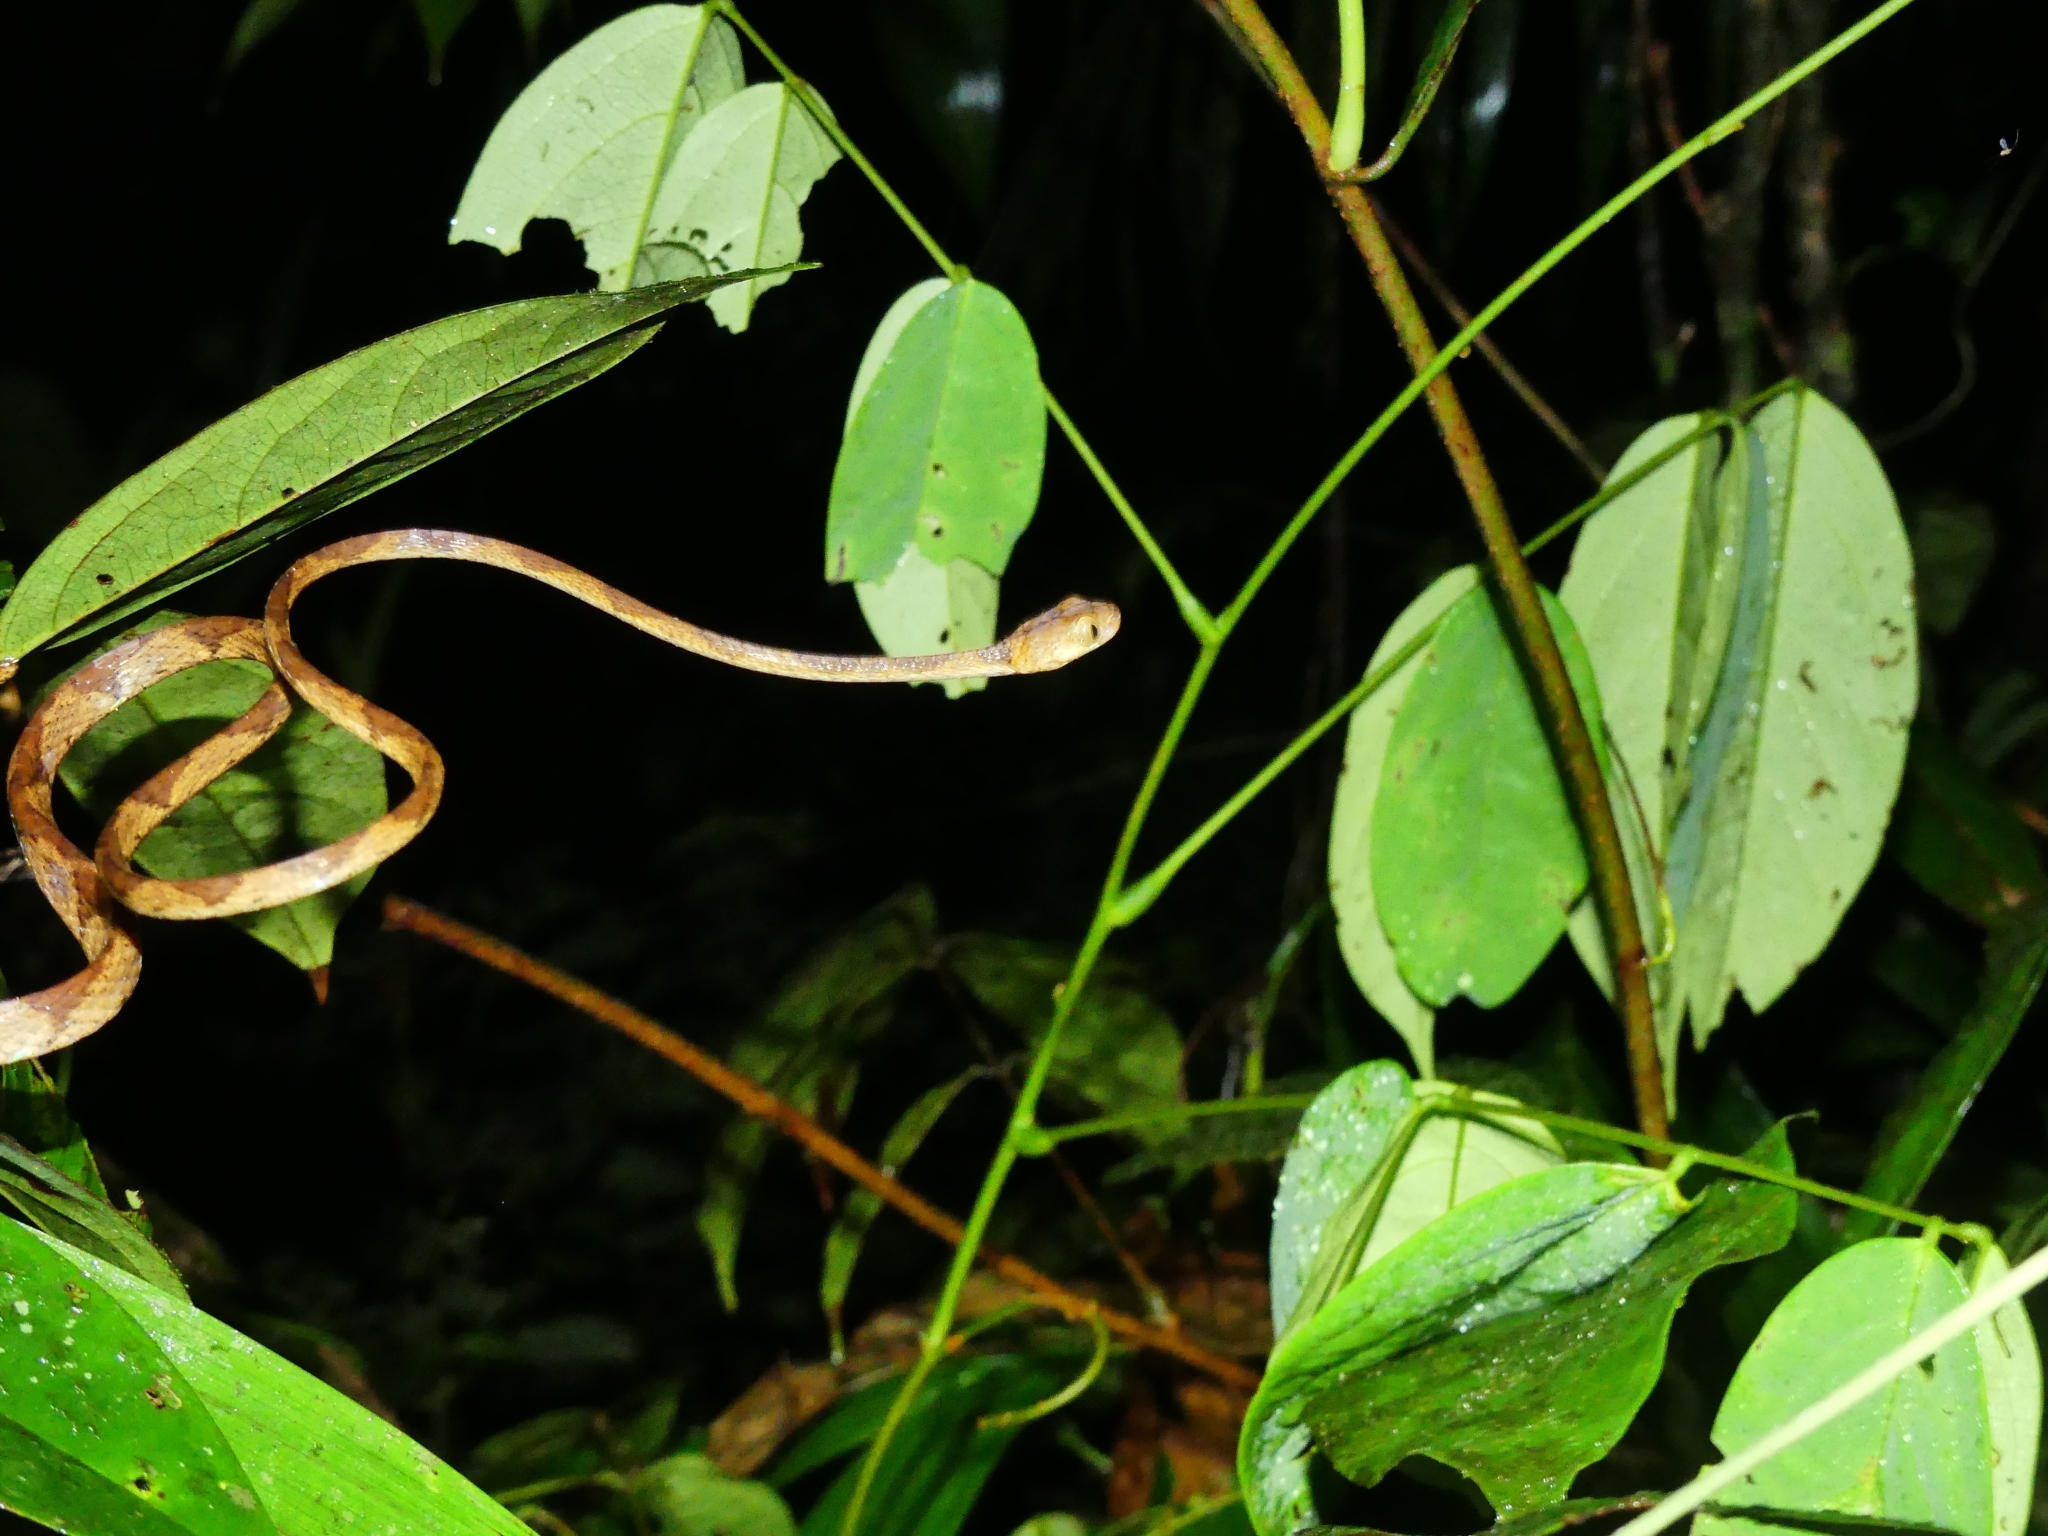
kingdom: Animalia
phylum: Chordata
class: Squamata
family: Colubridae
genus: Imantodes
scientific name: Imantodes lentiferus
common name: Amazon basin tree snake
